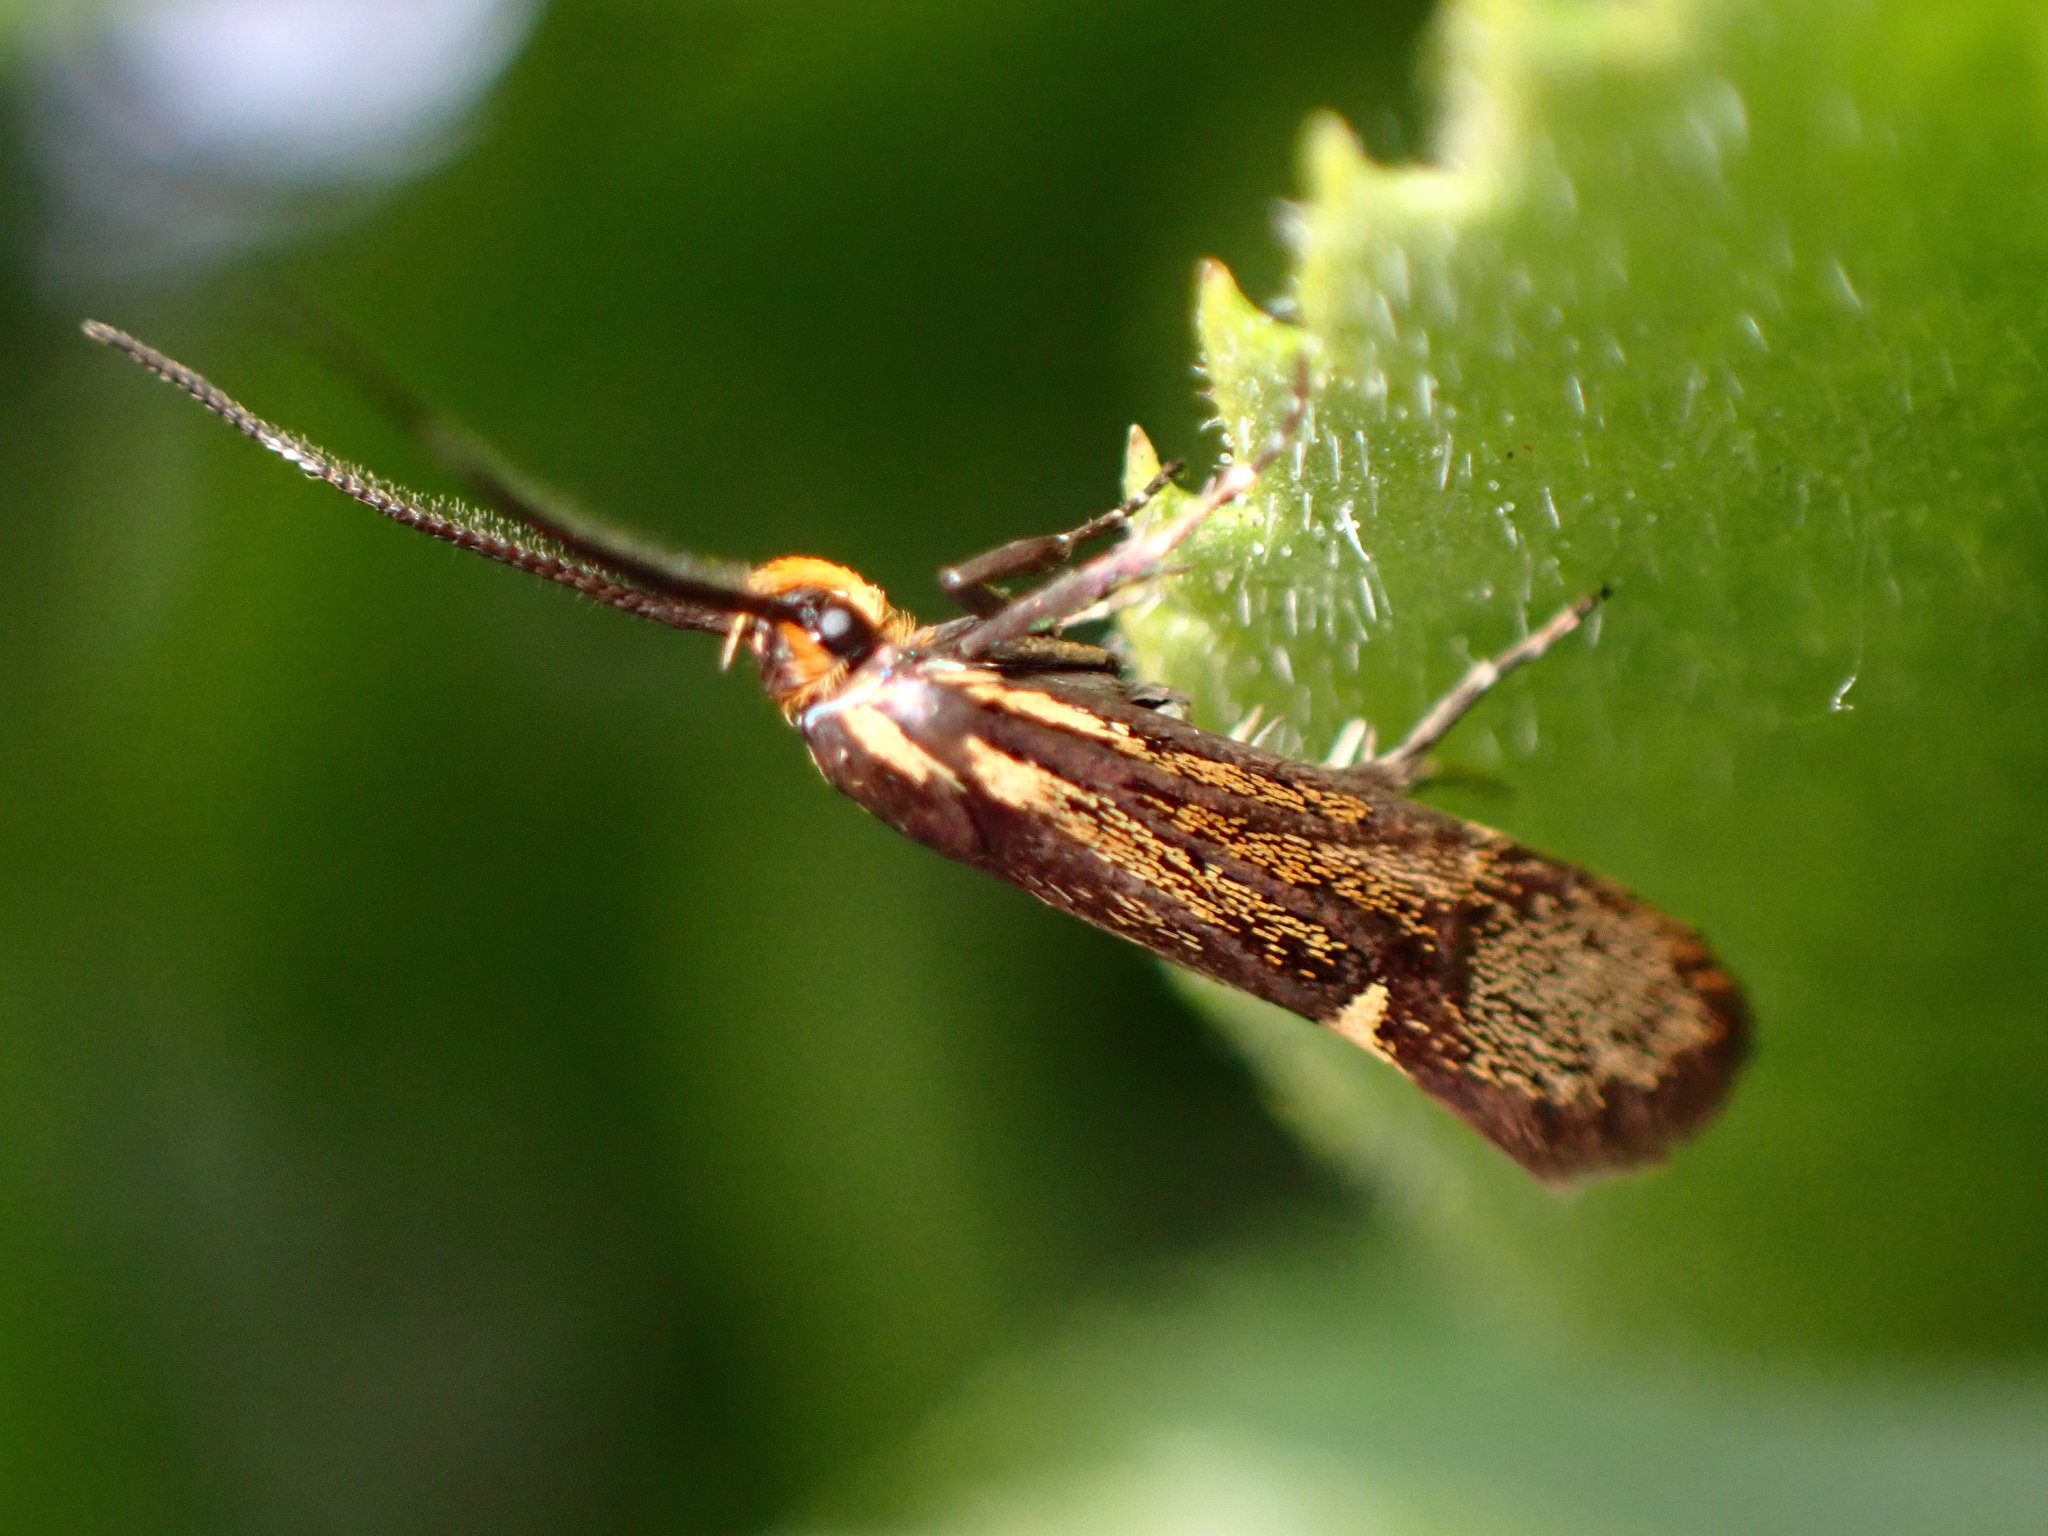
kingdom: Animalia
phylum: Arthropoda
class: Insecta
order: Lepidoptera
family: Oecophoridae
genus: Dafa
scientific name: Dafa Esperia sulphurella
